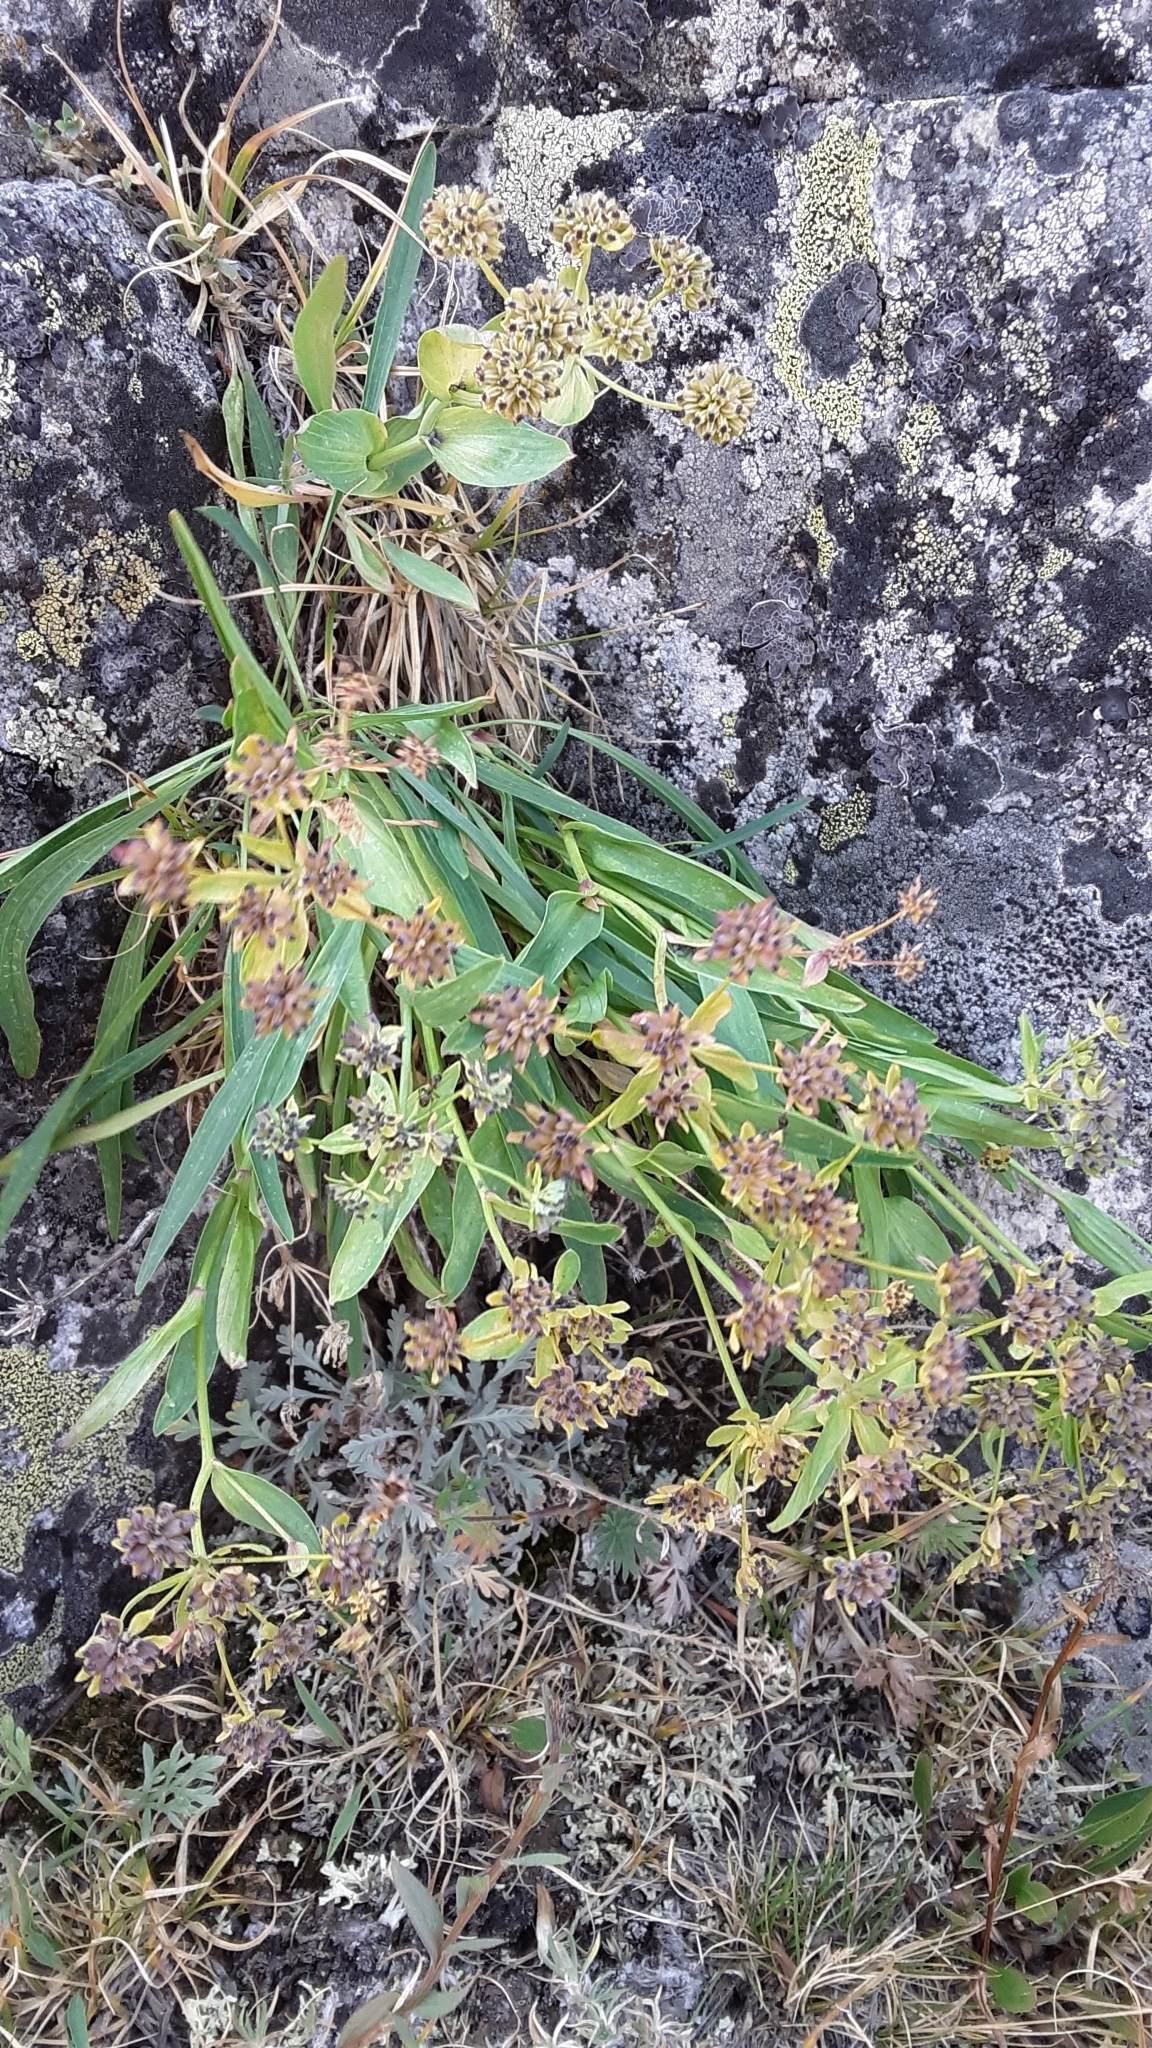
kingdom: Plantae
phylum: Tracheophyta
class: Magnoliopsida
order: Apiales
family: Apiaceae
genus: Bupleurum
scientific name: Bupleurum americanum
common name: American thoroughwax
